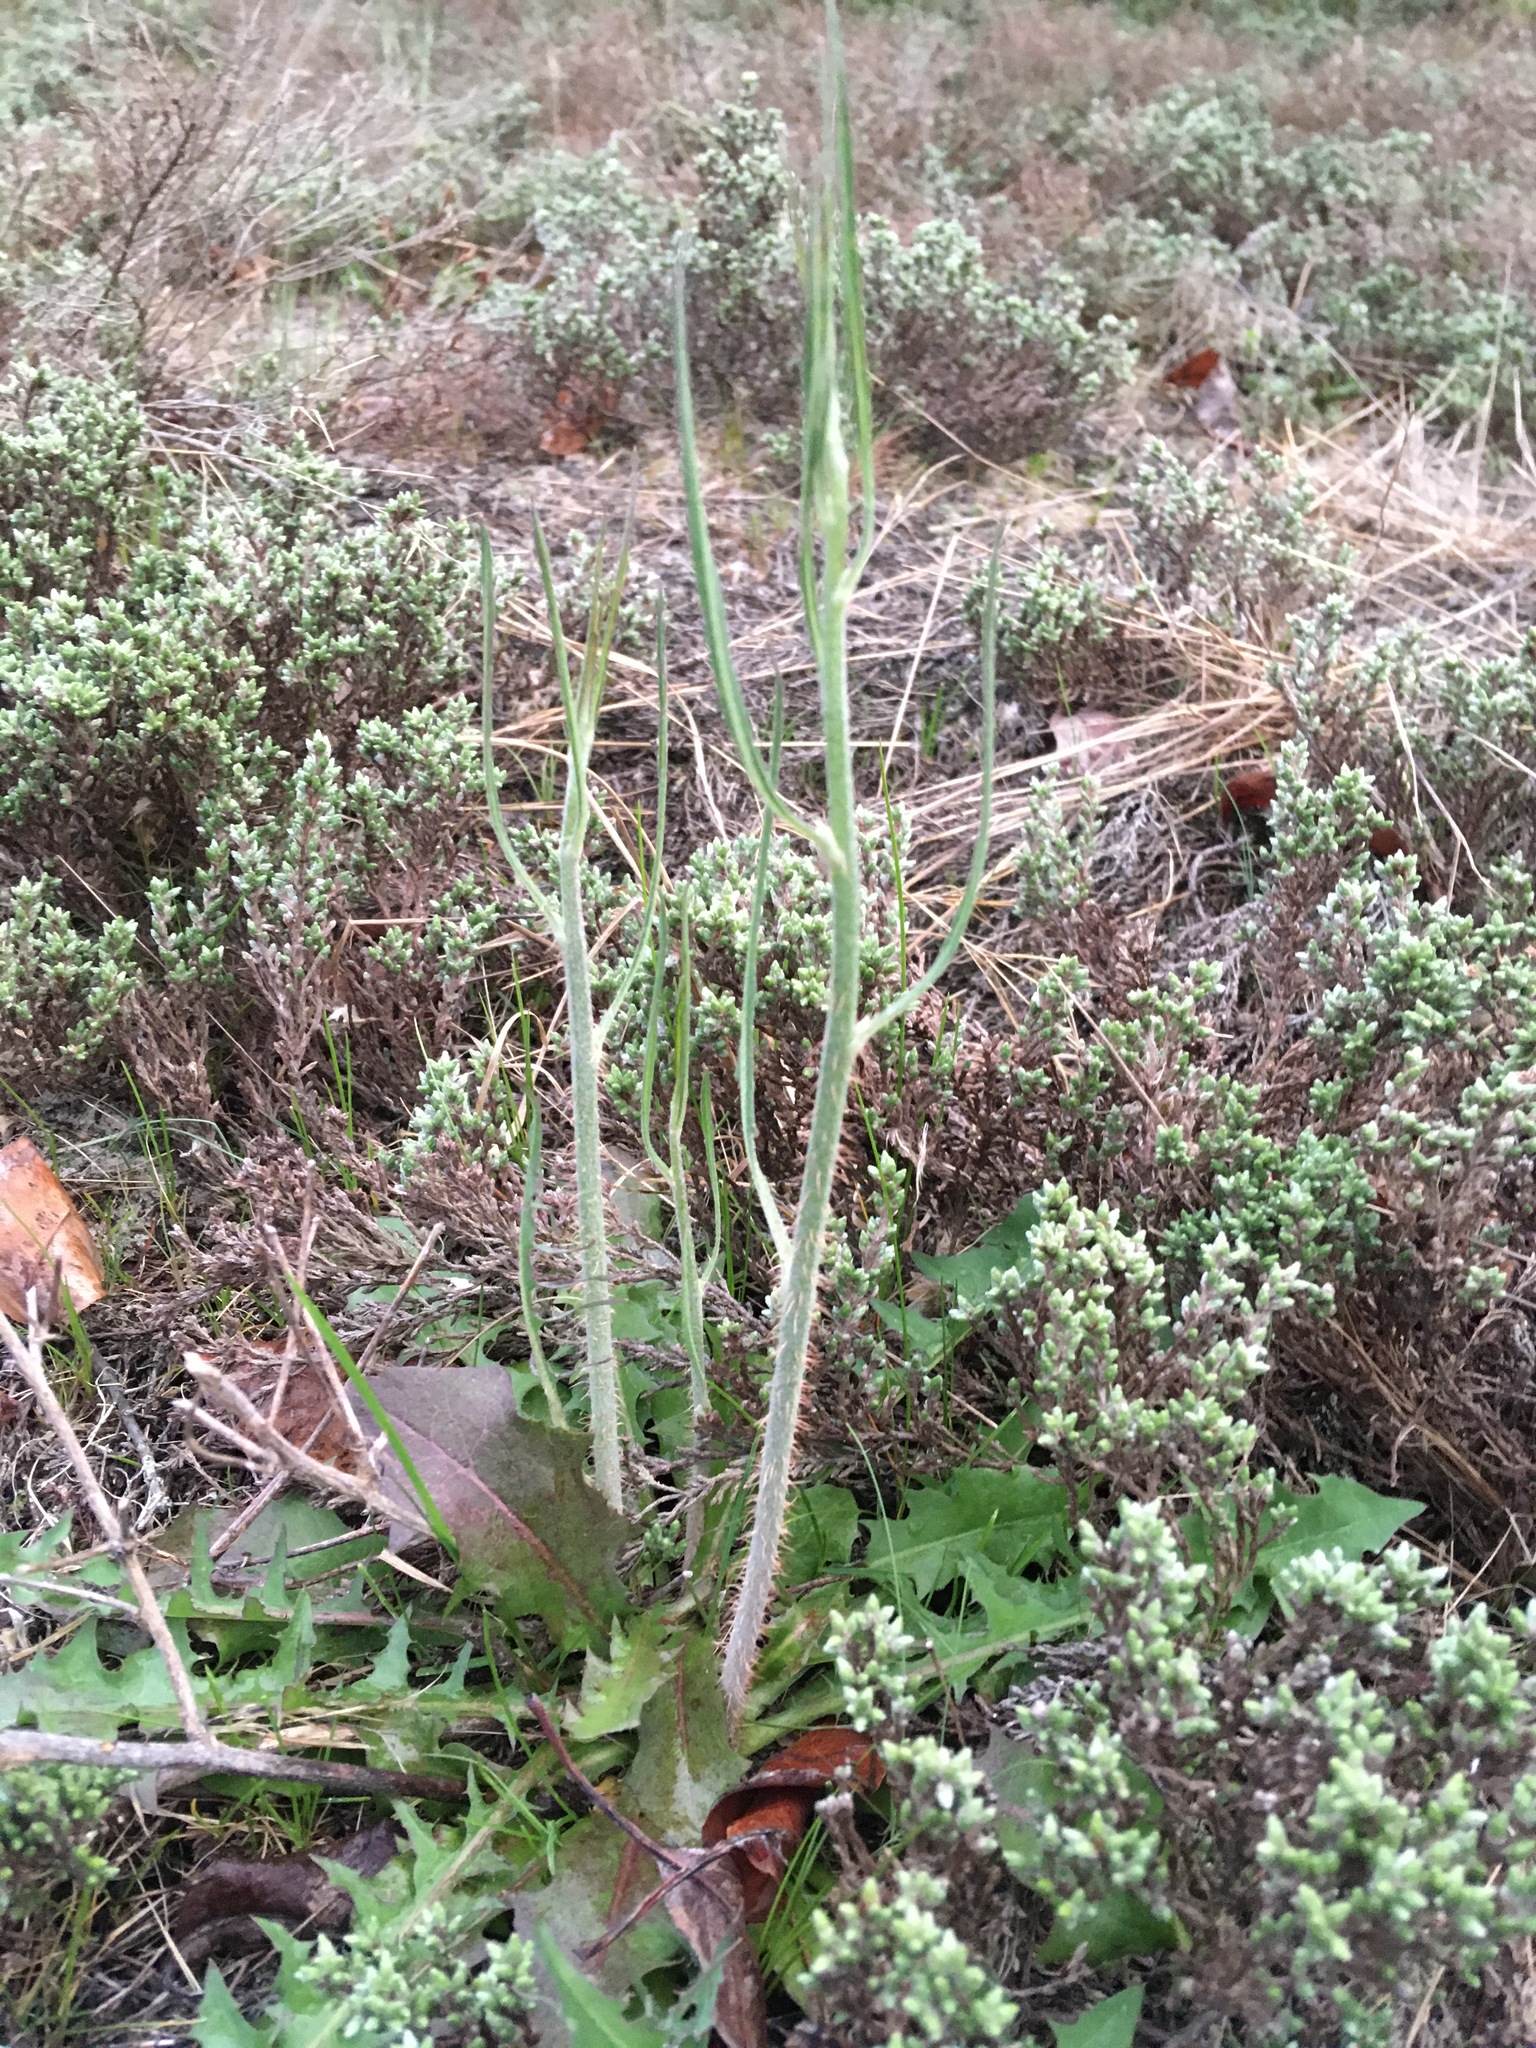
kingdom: Plantae
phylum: Tracheophyta
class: Magnoliopsida
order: Asterales
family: Asteraceae
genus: Hypochaeris
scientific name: Hypochaeris radicata
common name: Flatweed
